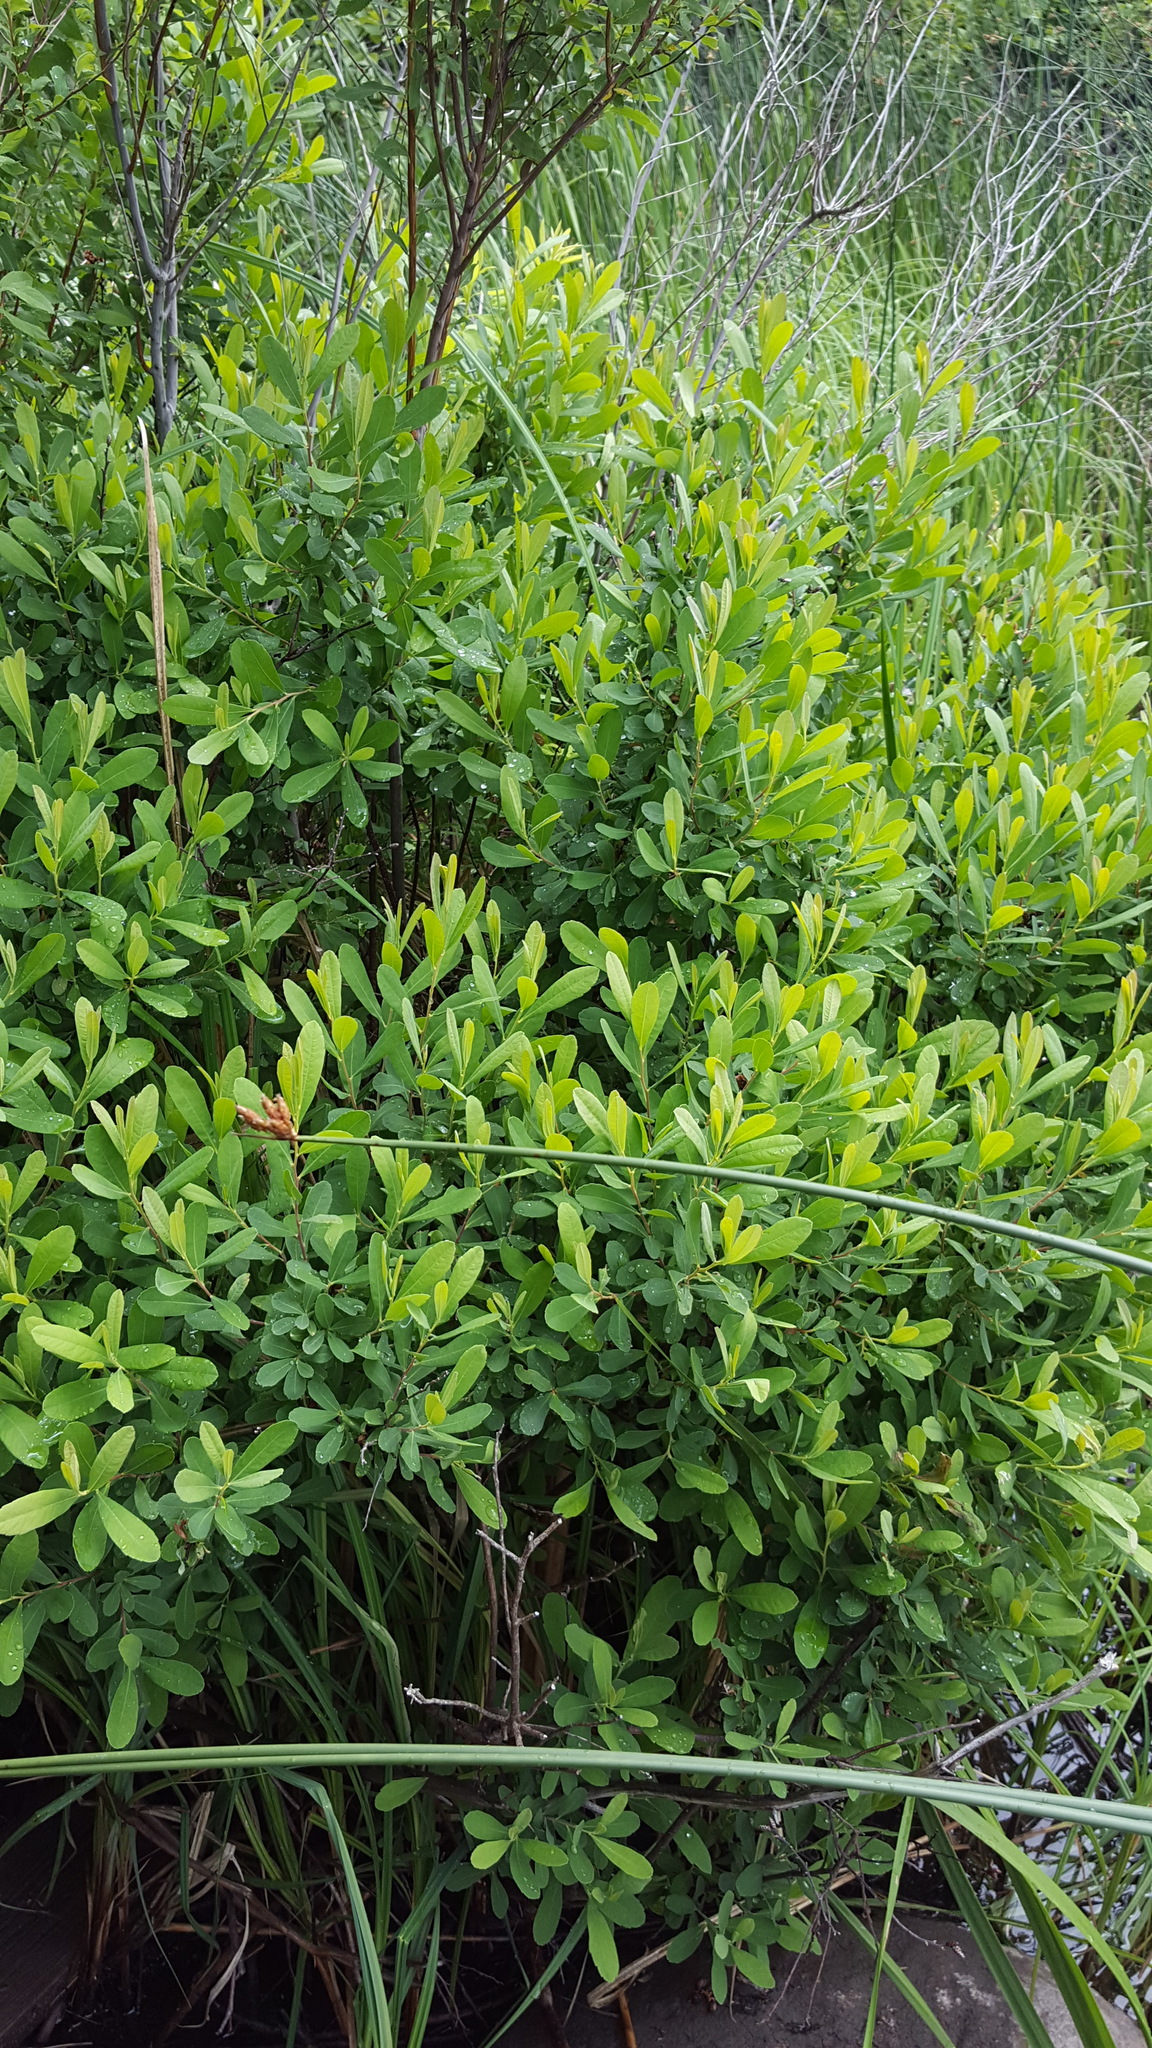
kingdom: Plantae
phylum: Tracheophyta
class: Magnoliopsida
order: Fagales
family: Myricaceae
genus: Myrica
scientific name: Myrica gale
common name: Sweet gale
